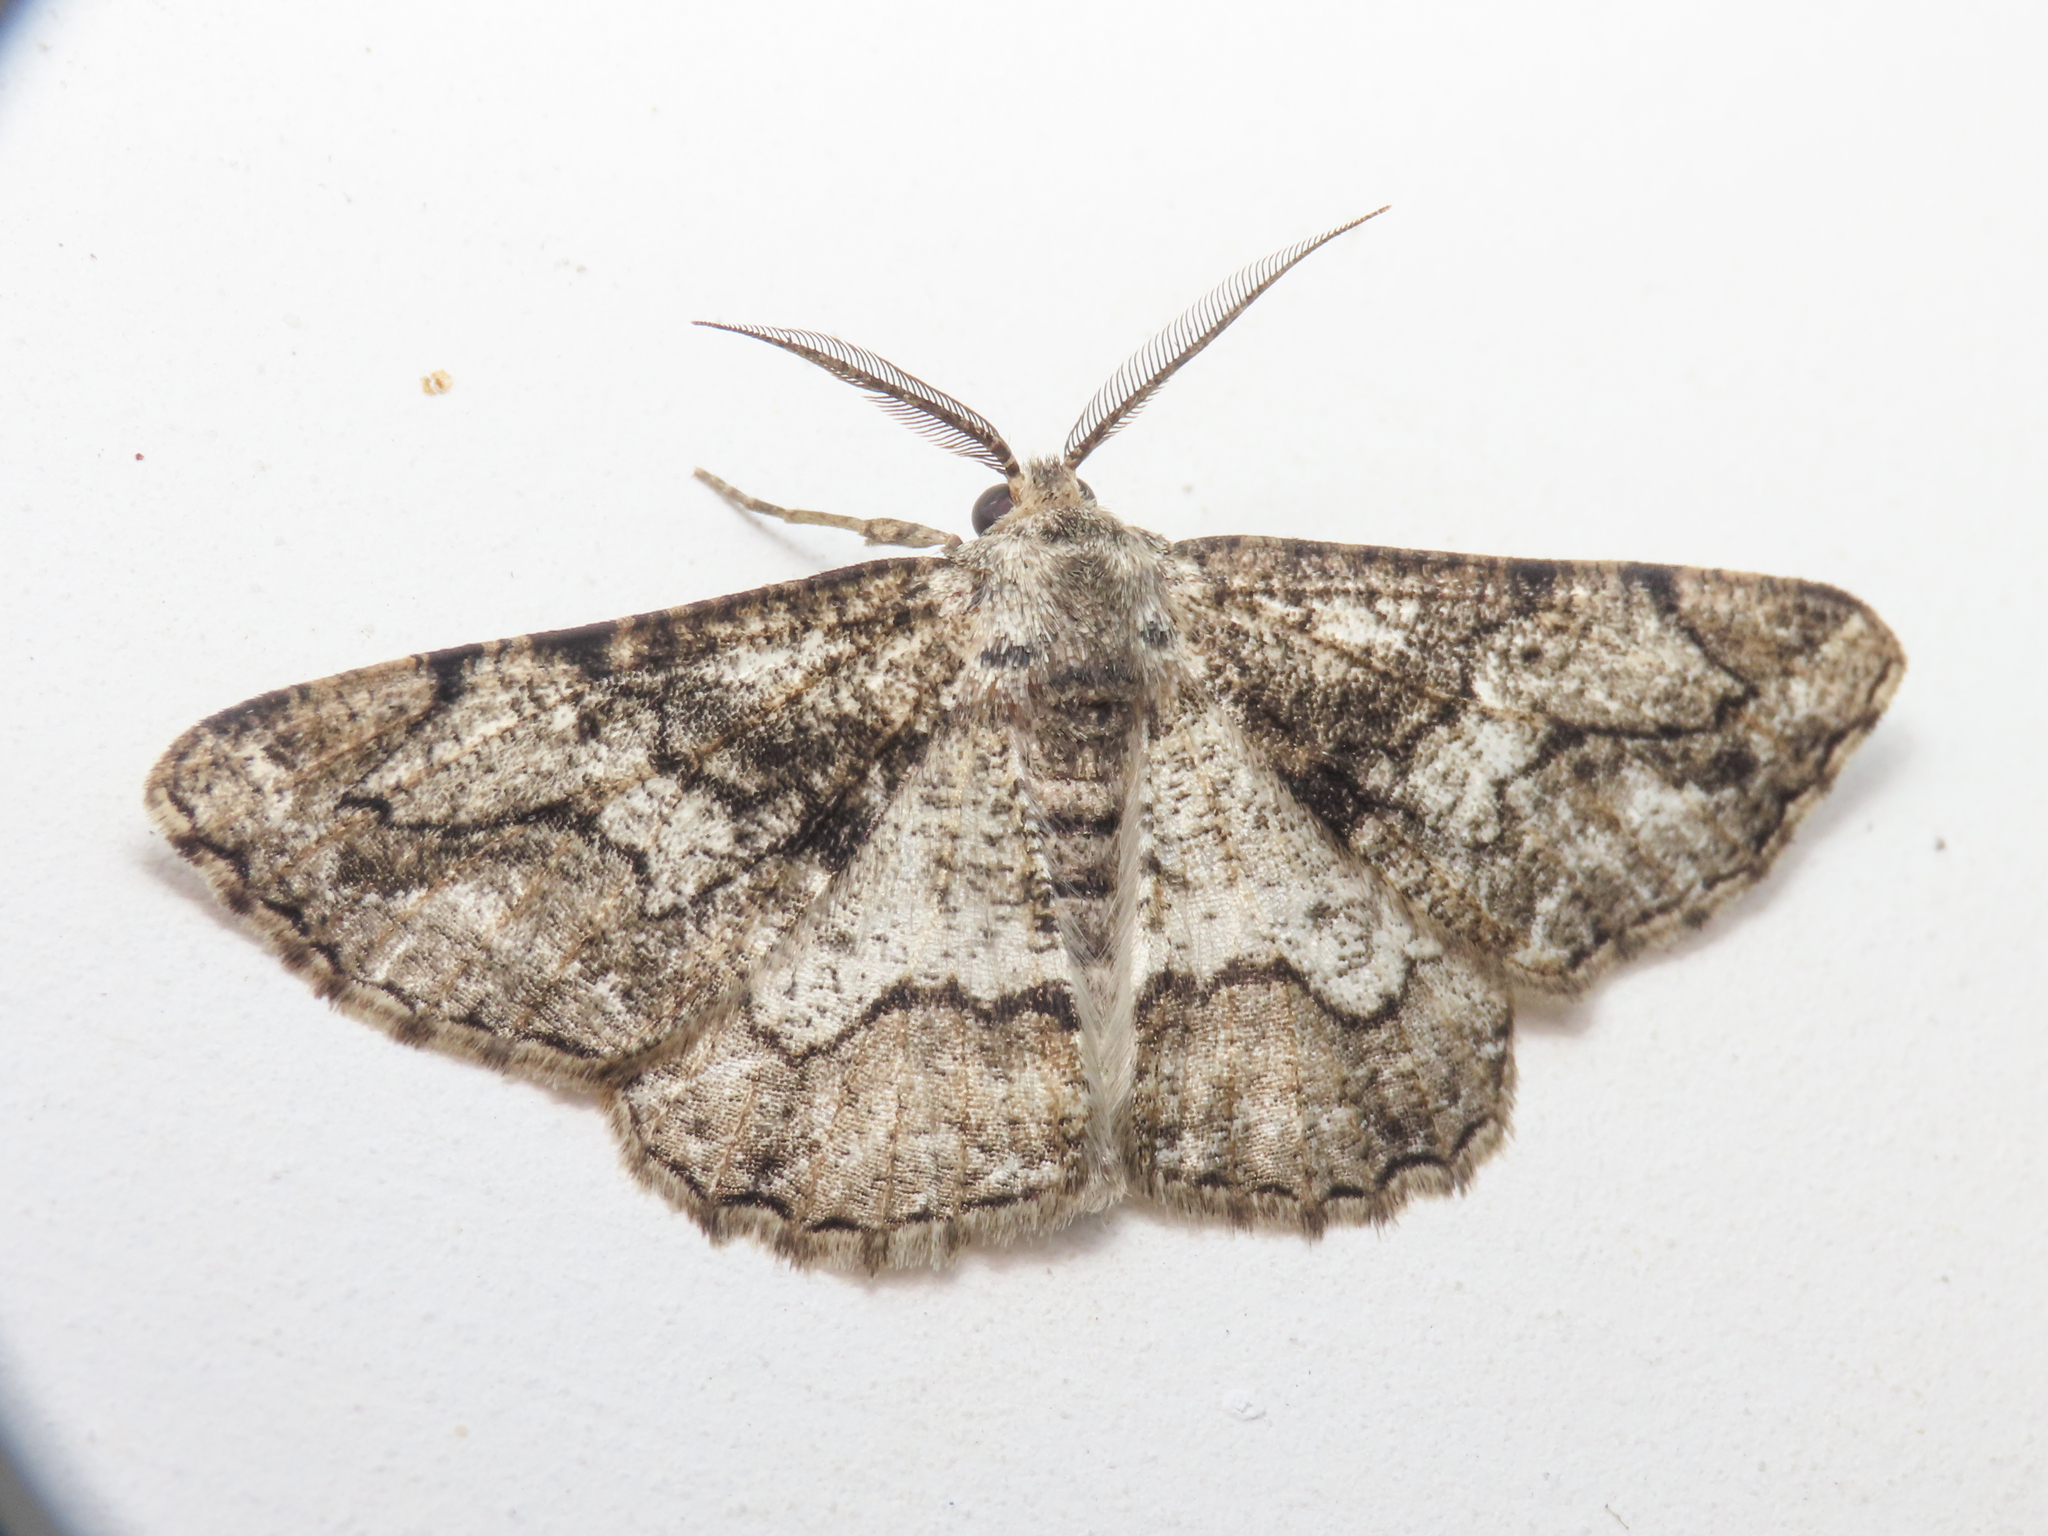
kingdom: Animalia
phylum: Arthropoda
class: Insecta
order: Lepidoptera
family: Geometridae
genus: Synopsia
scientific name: Synopsia sociaria
